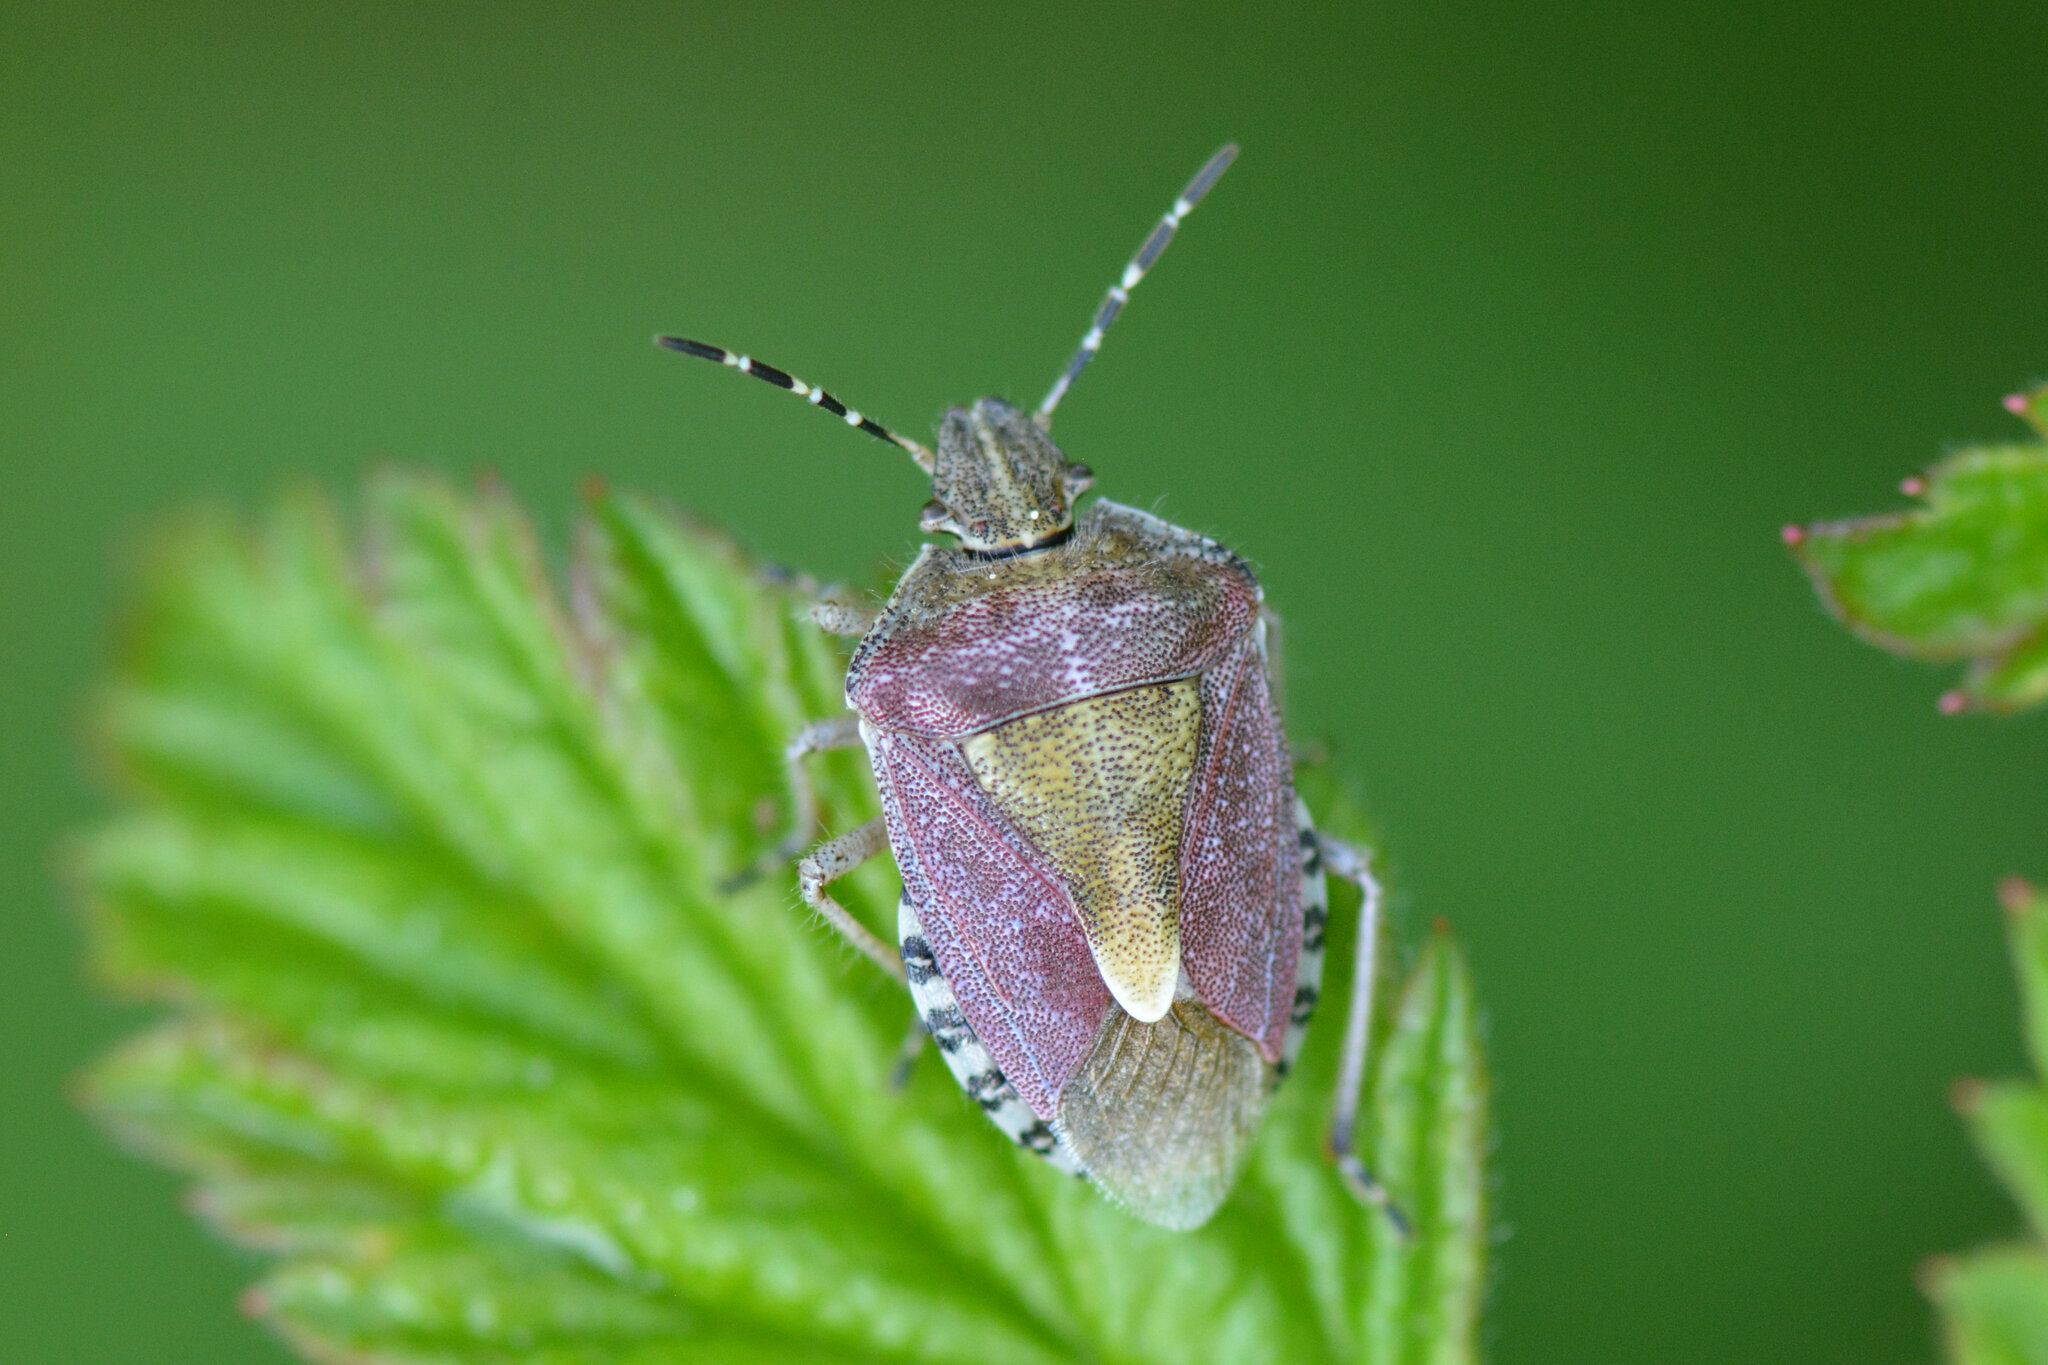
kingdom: Animalia
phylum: Arthropoda
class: Insecta
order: Hemiptera
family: Pentatomidae
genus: Dolycoris
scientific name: Dolycoris baccarum
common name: Sloe bug
